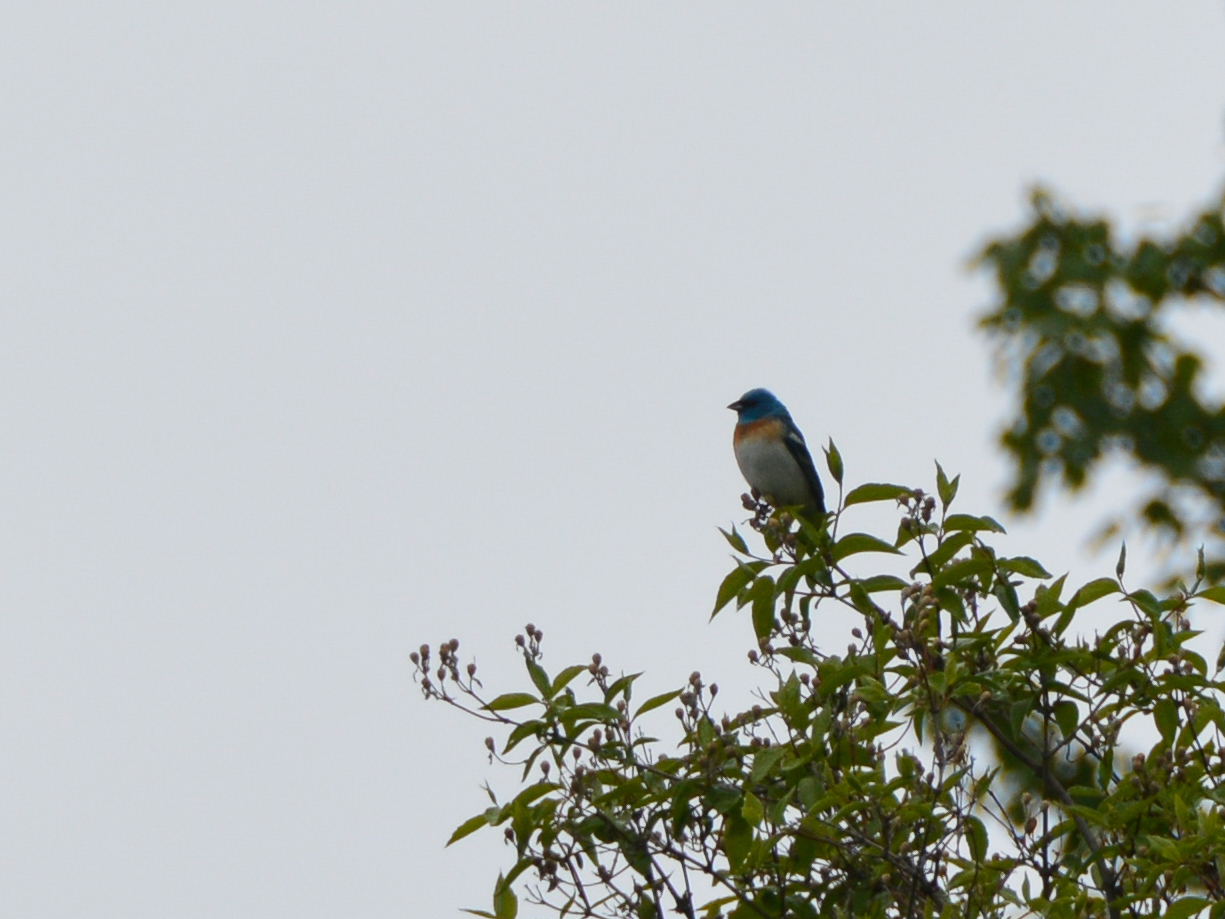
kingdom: Animalia
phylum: Chordata
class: Aves
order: Passeriformes
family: Cardinalidae
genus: Passerina
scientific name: Passerina amoena
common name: Lazuli bunting
